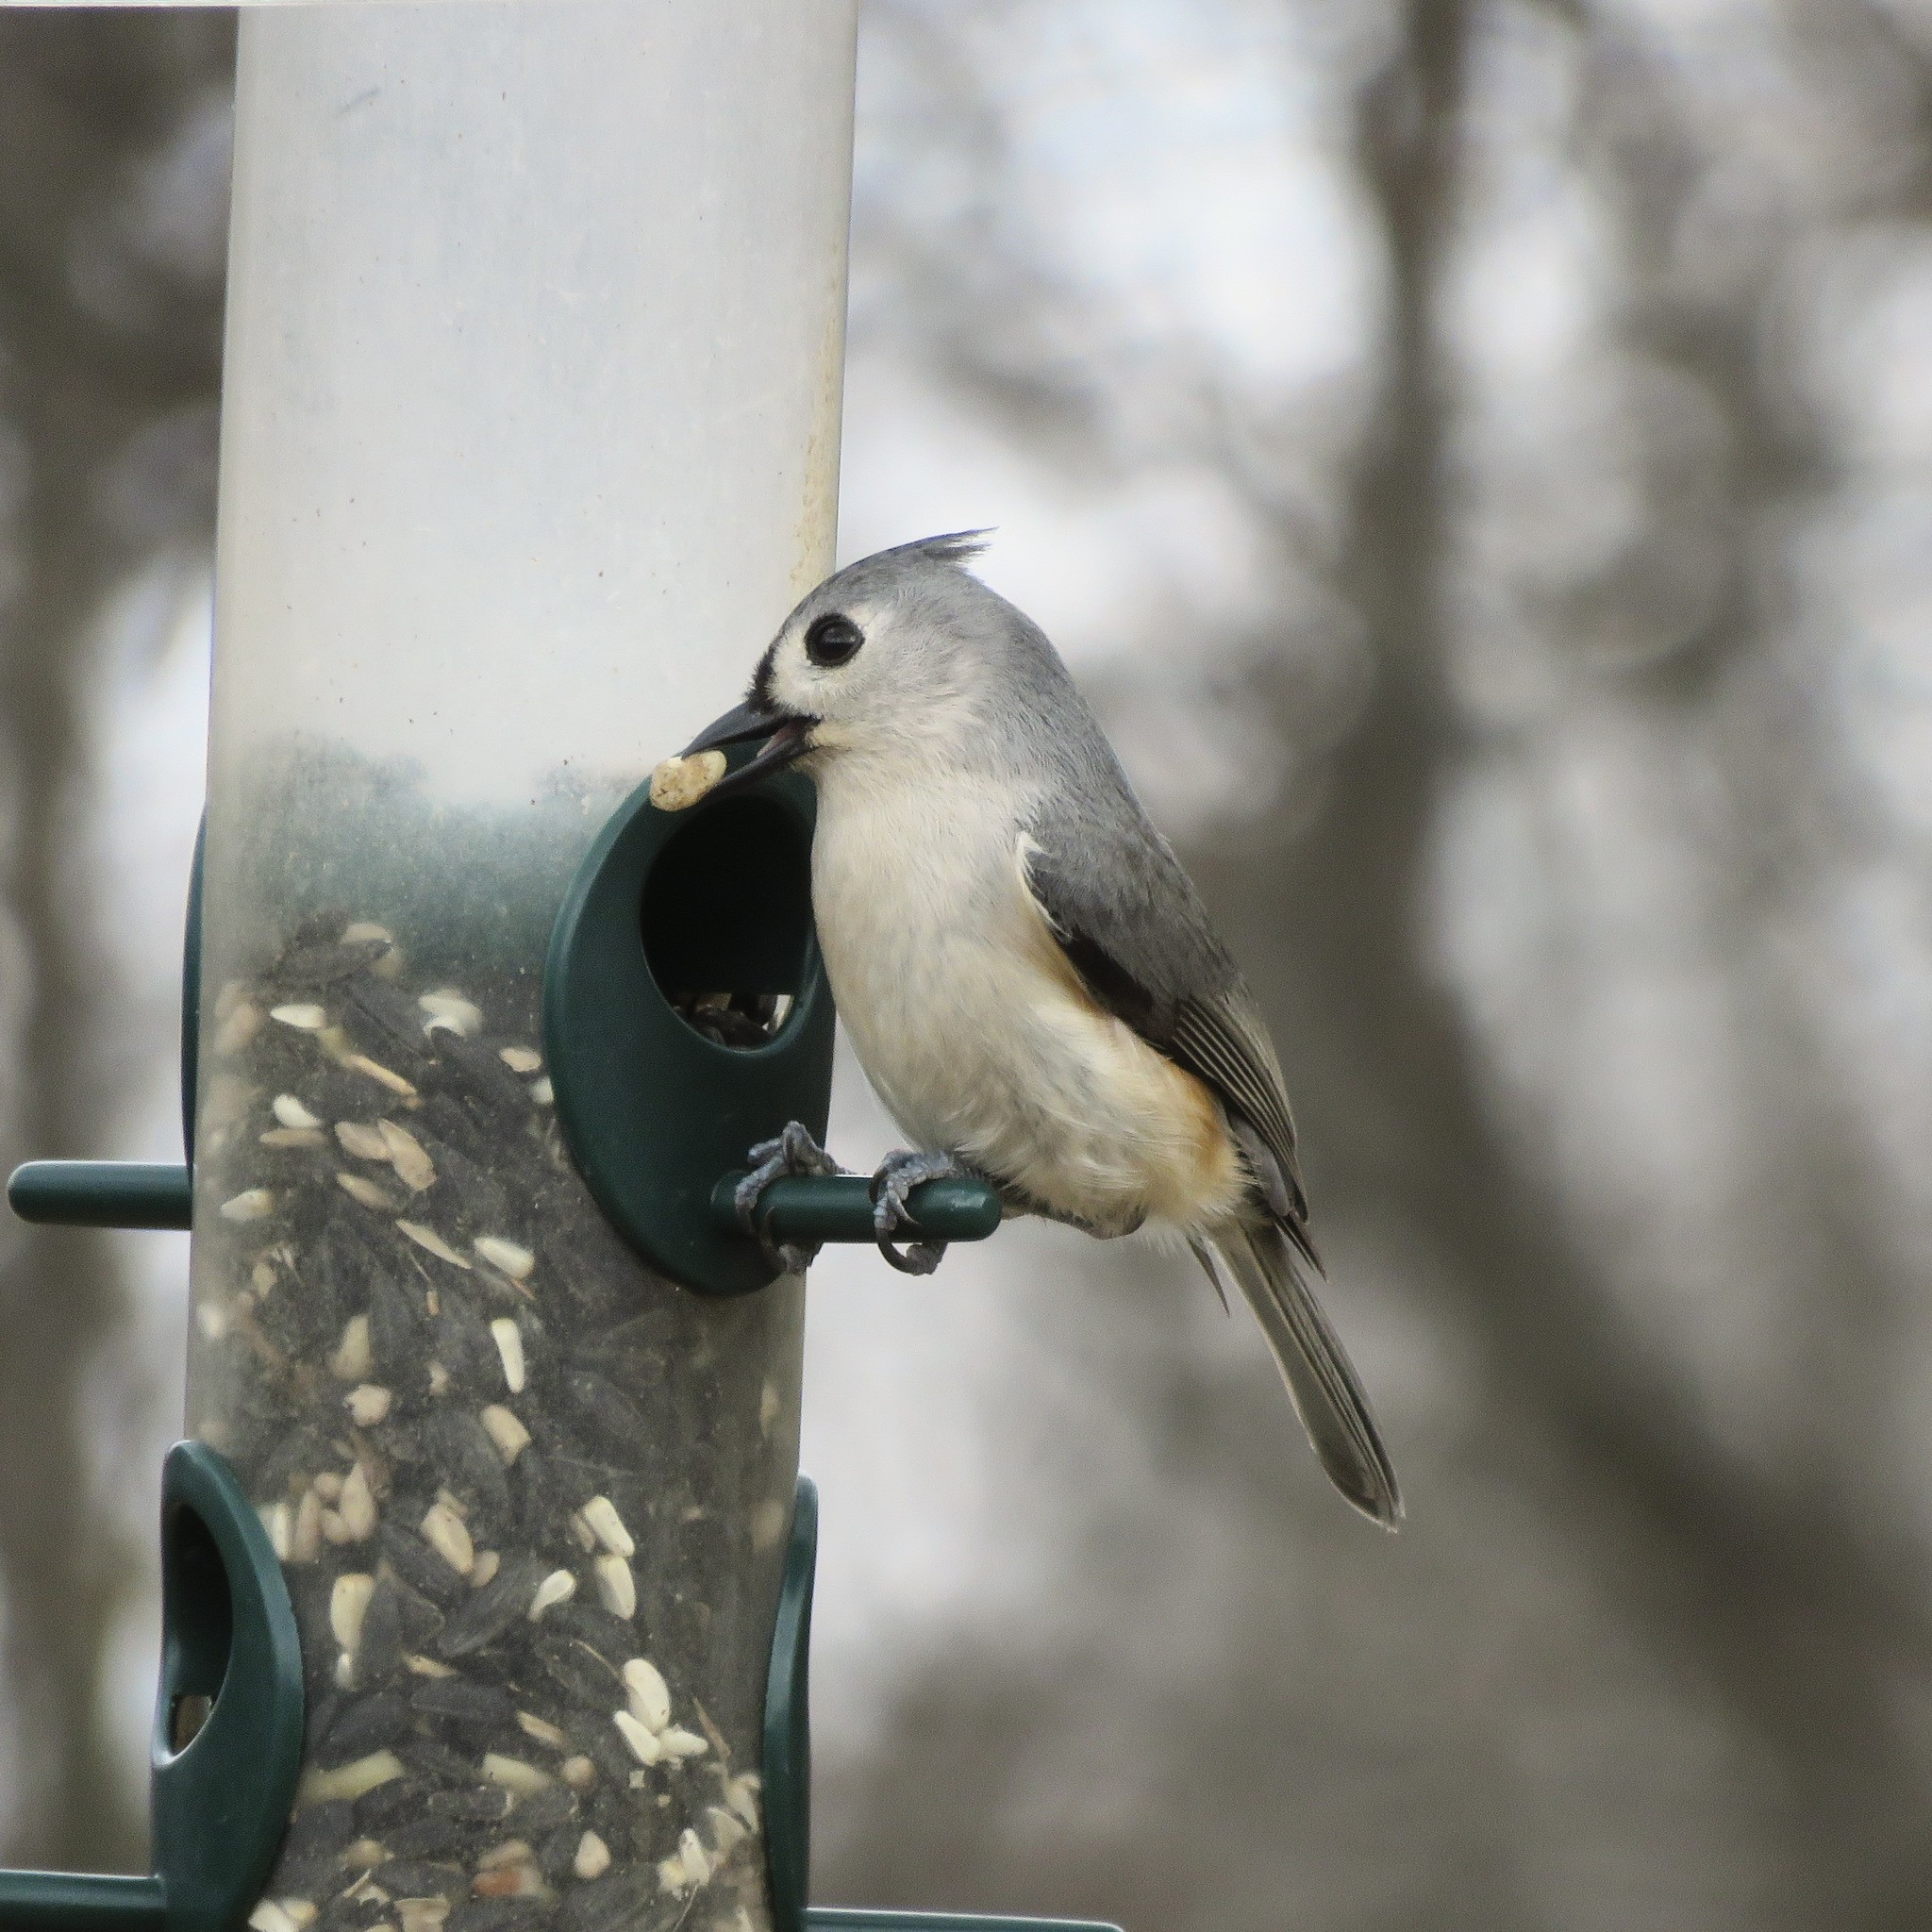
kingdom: Animalia
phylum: Chordata
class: Aves
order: Passeriformes
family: Paridae
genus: Baeolophus
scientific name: Baeolophus bicolor
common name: Tufted titmouse
